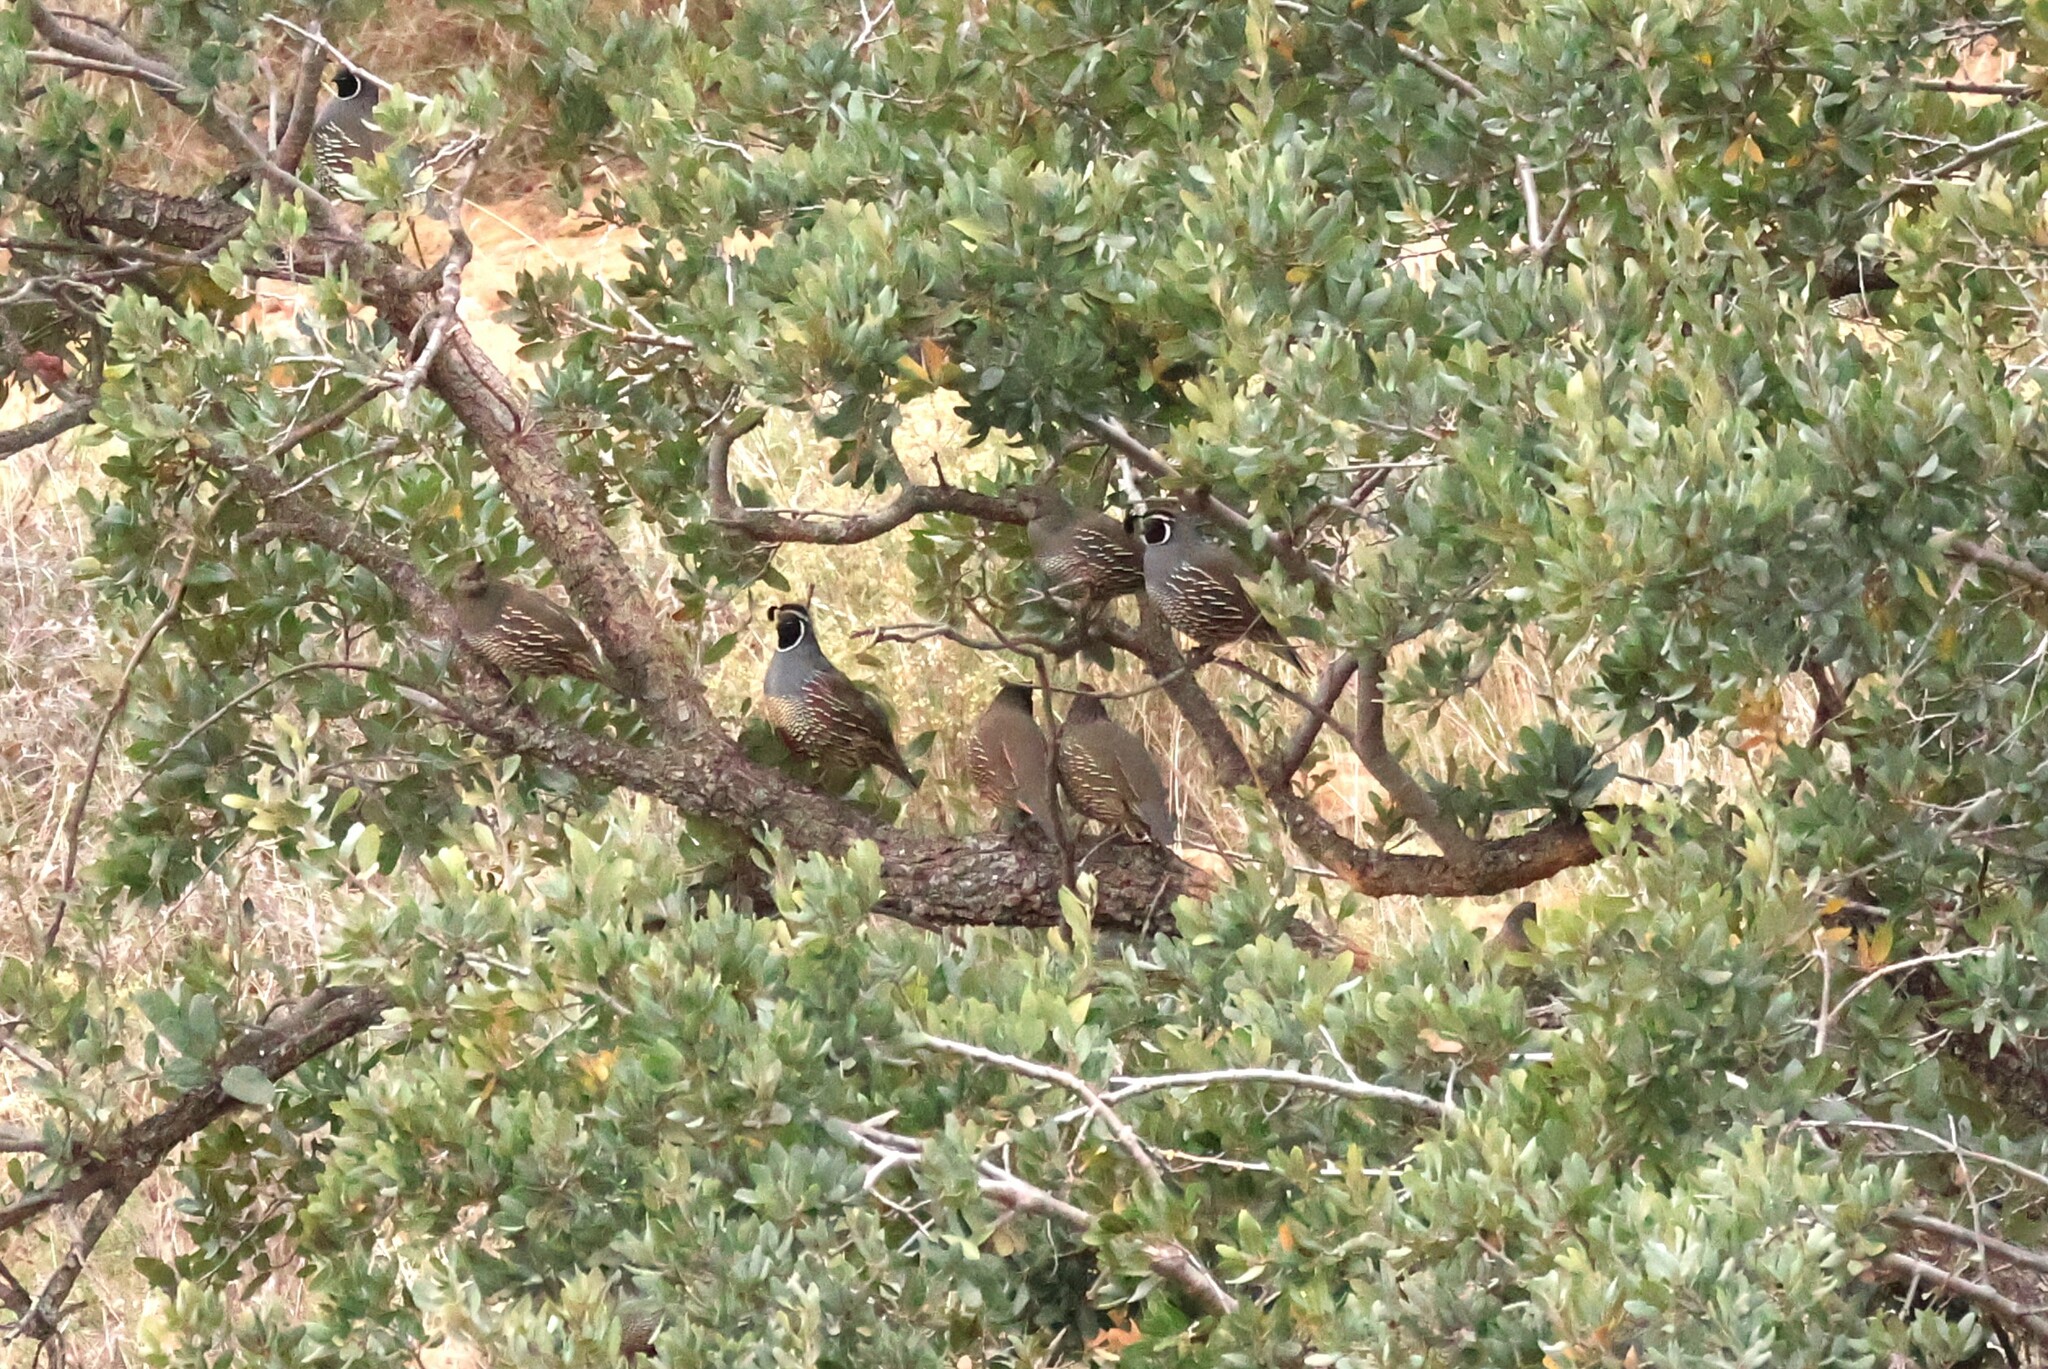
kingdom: Animalia
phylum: Chordata
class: Aves
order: Galliformes
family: Odontophoridae
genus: Callipepla
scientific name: Callipepla californica
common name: California quail
